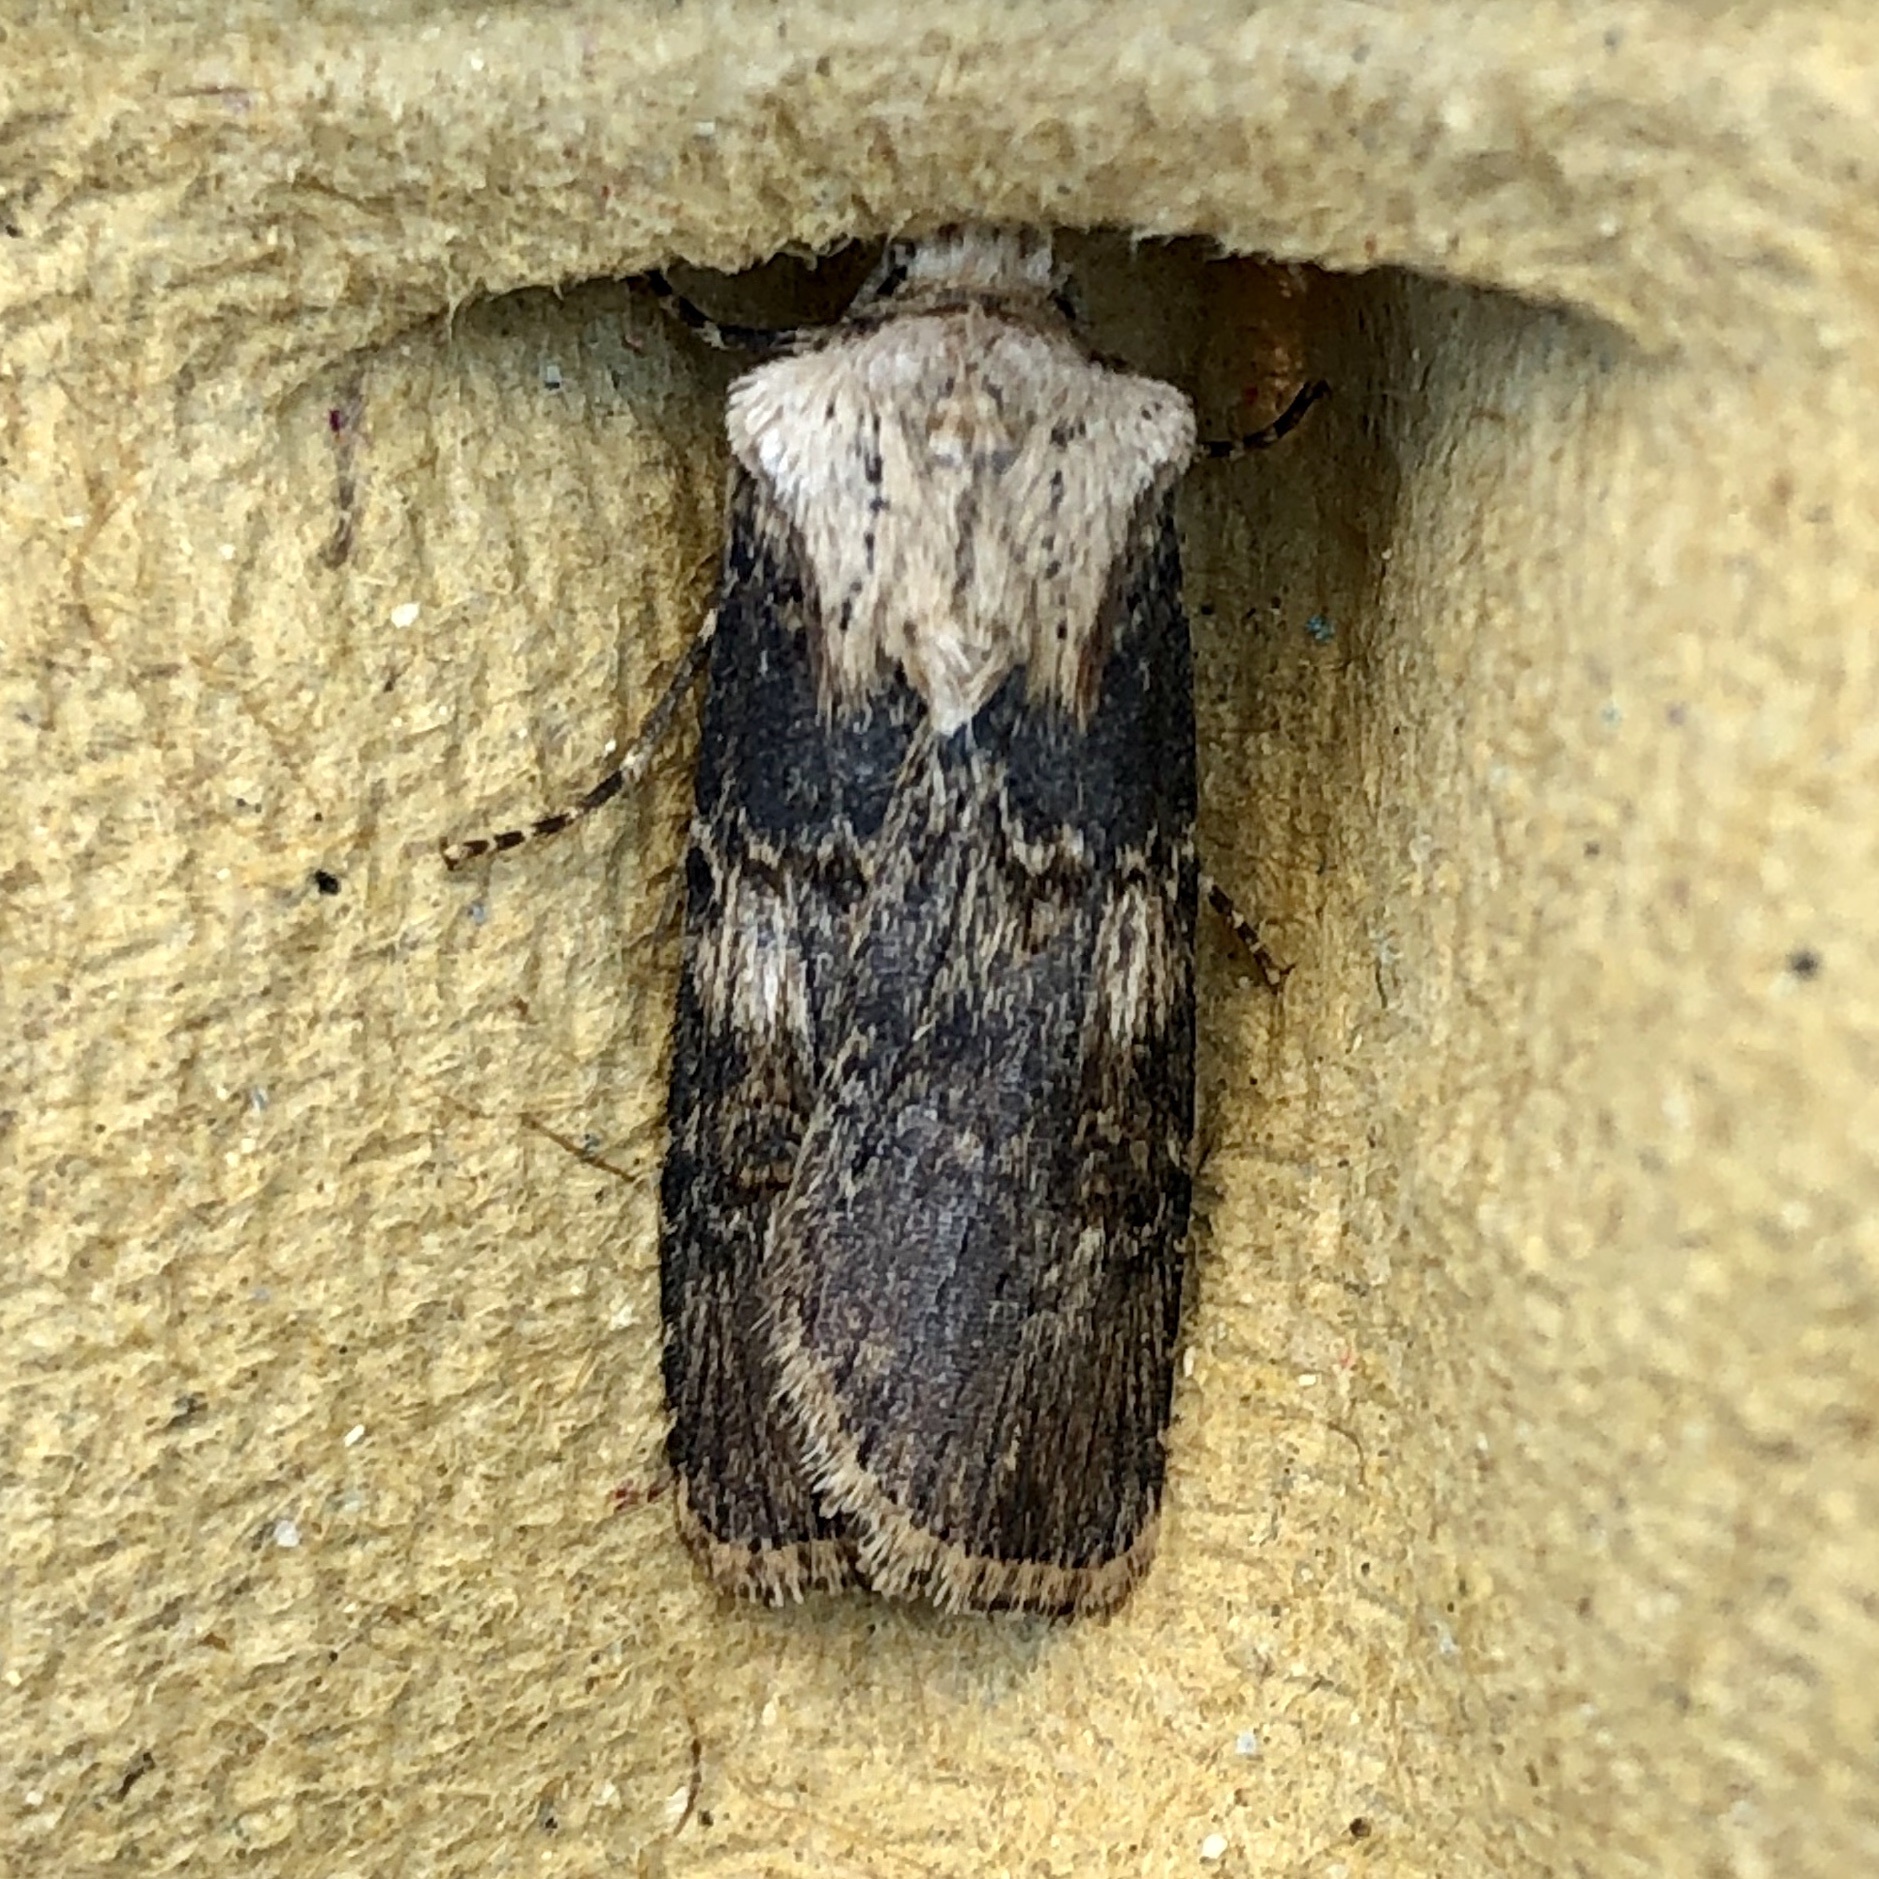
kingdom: Animalia
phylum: Arthropoda
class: Insecta
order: Lepidoptera
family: Noctuidae
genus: Agrotis
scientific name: Agrotis puta
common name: Shuttle-shaped dart
